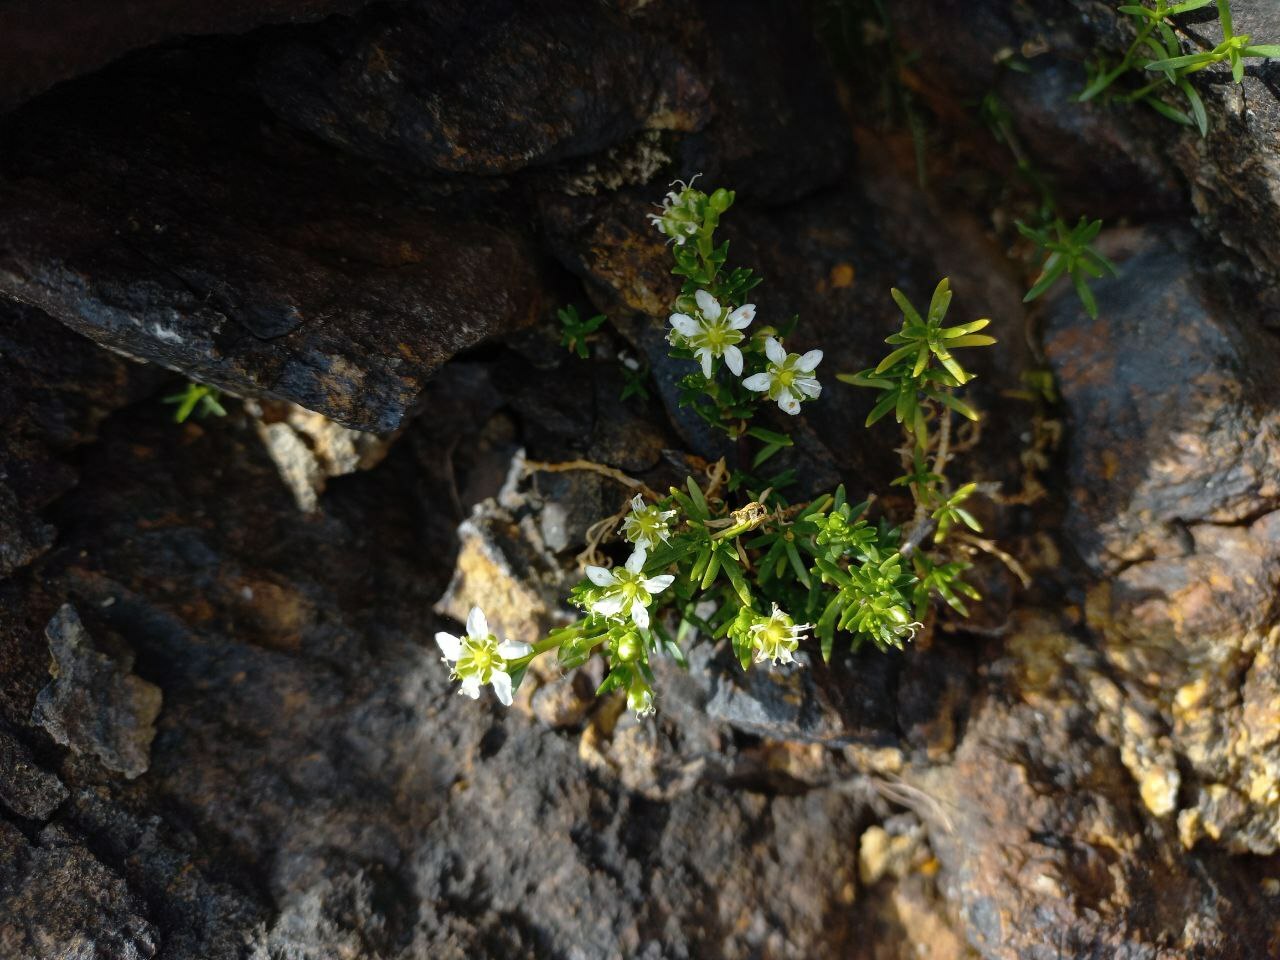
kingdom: Plantae
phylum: Tracheophyta
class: Magnoliopsida
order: Caryophyllales
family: Caryophyllaceae
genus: Arenaria
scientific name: Arenaria serpens
